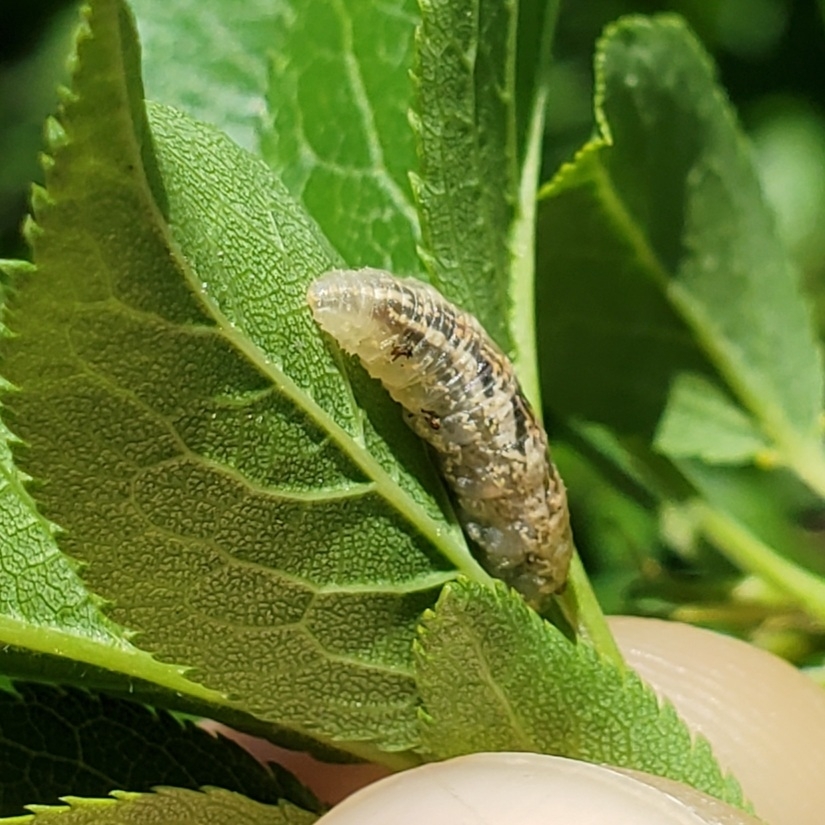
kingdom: Animalia
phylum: Arthropoda
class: Insecta
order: Diptera
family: Syrphidae
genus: Syrphus
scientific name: Syrphus
